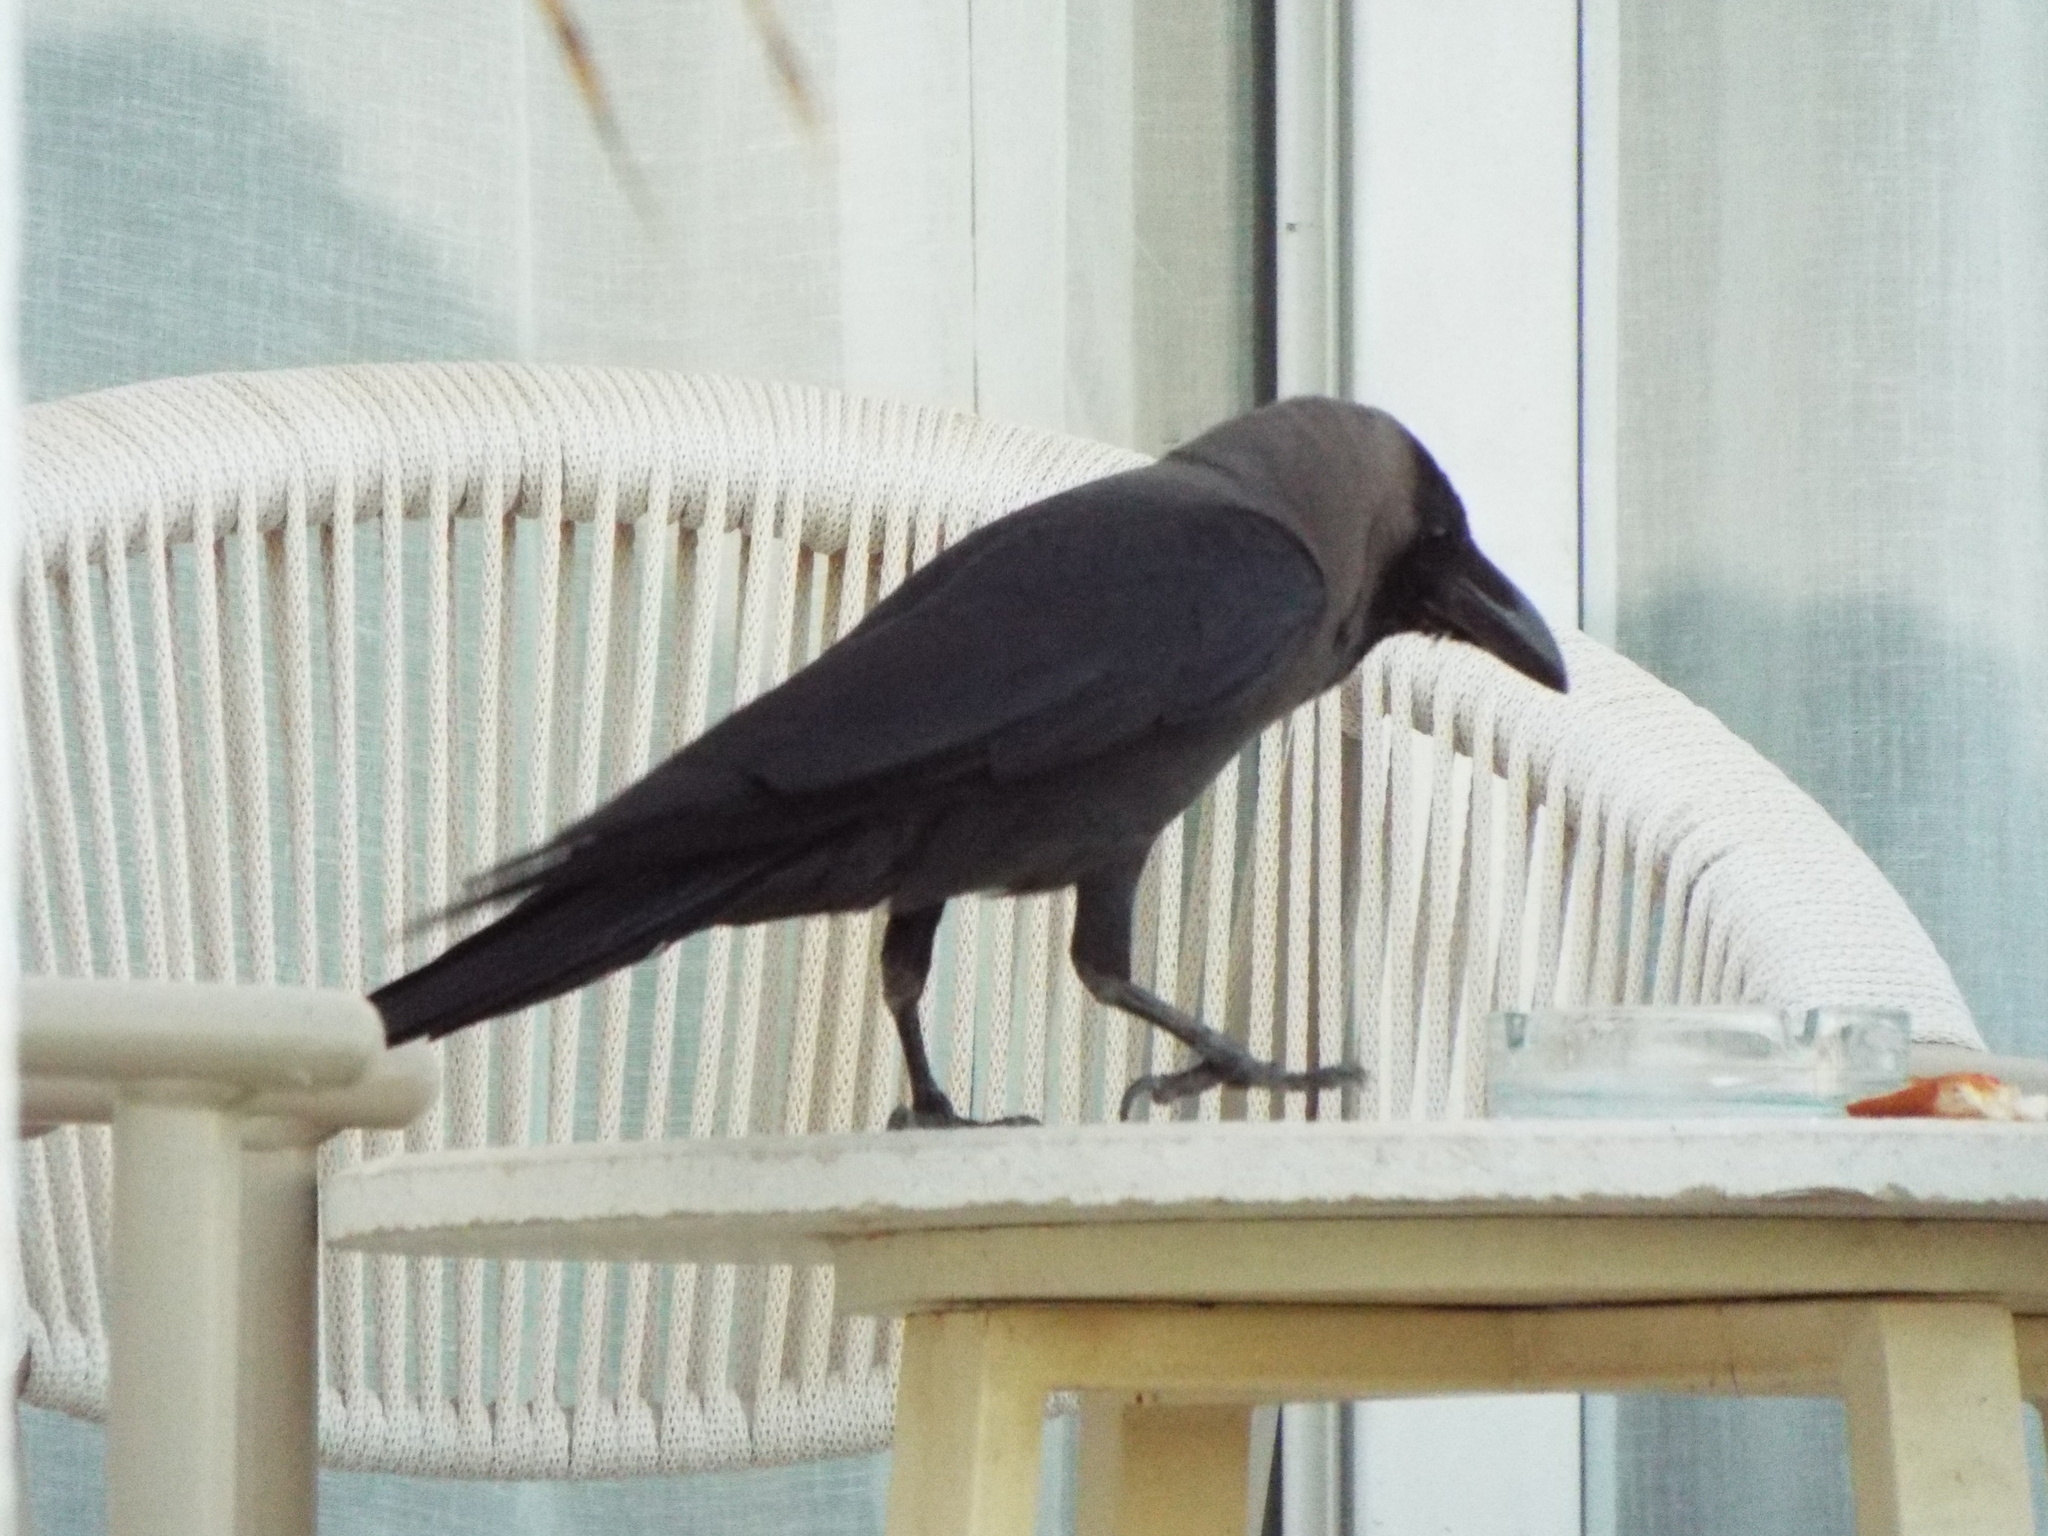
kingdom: Animalia
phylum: Chordata
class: Aves
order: Passeriformes
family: Corvidae
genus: Corvus
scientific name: Corvus splendens
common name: House crow
